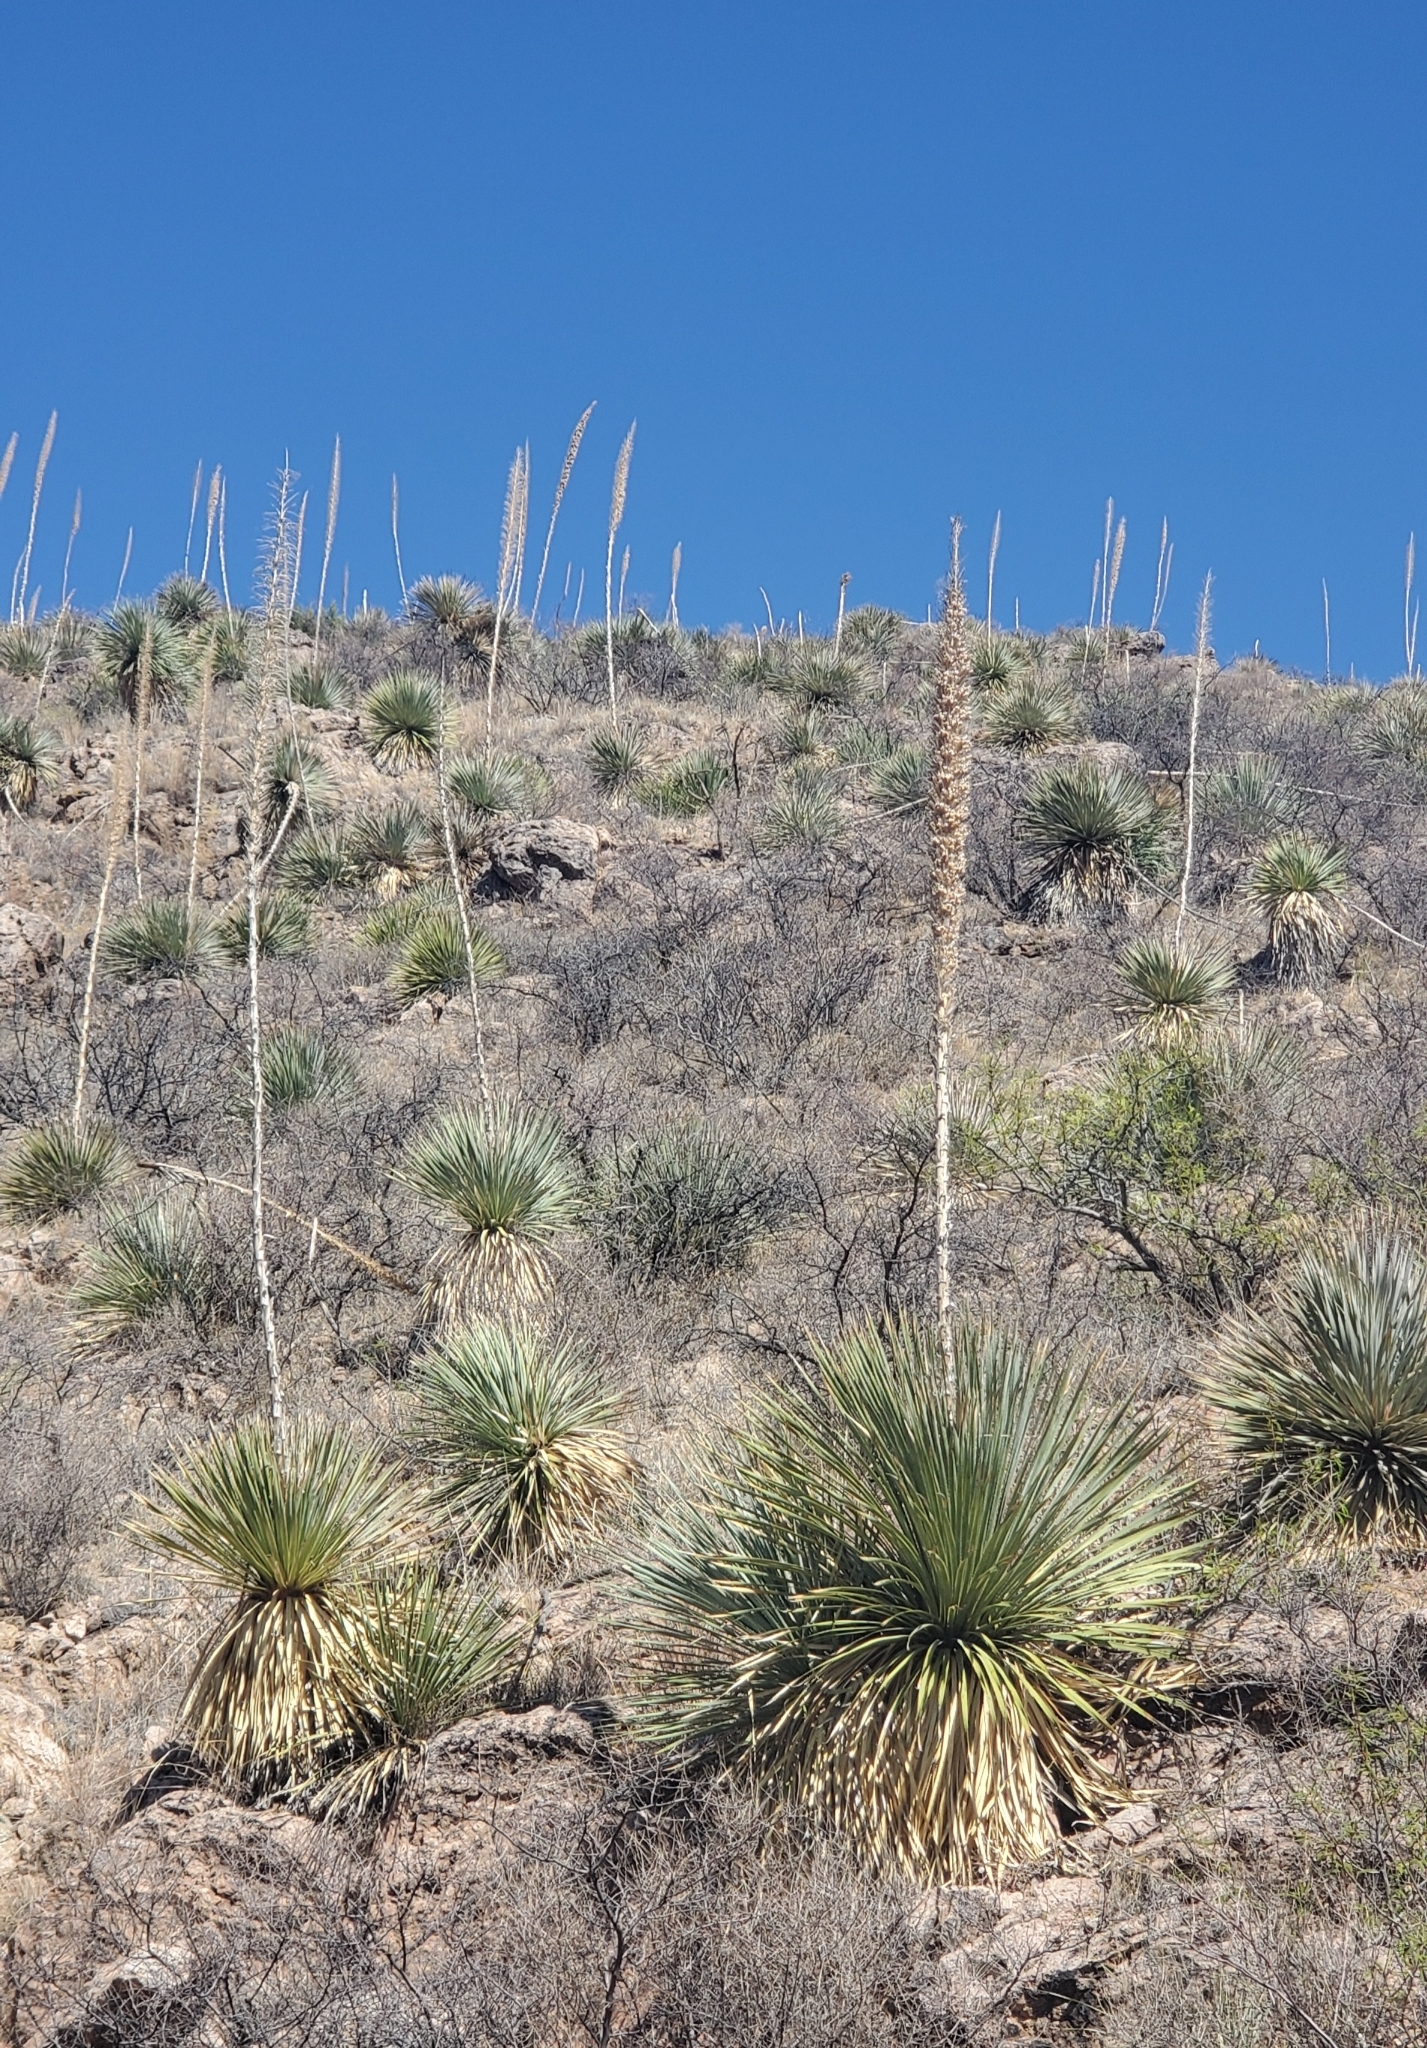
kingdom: Plantae
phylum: Tracheophyta
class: Liliopsida
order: Asparagales
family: Asparagaceae
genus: Dasylirion
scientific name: Dasylirion wheeleri
